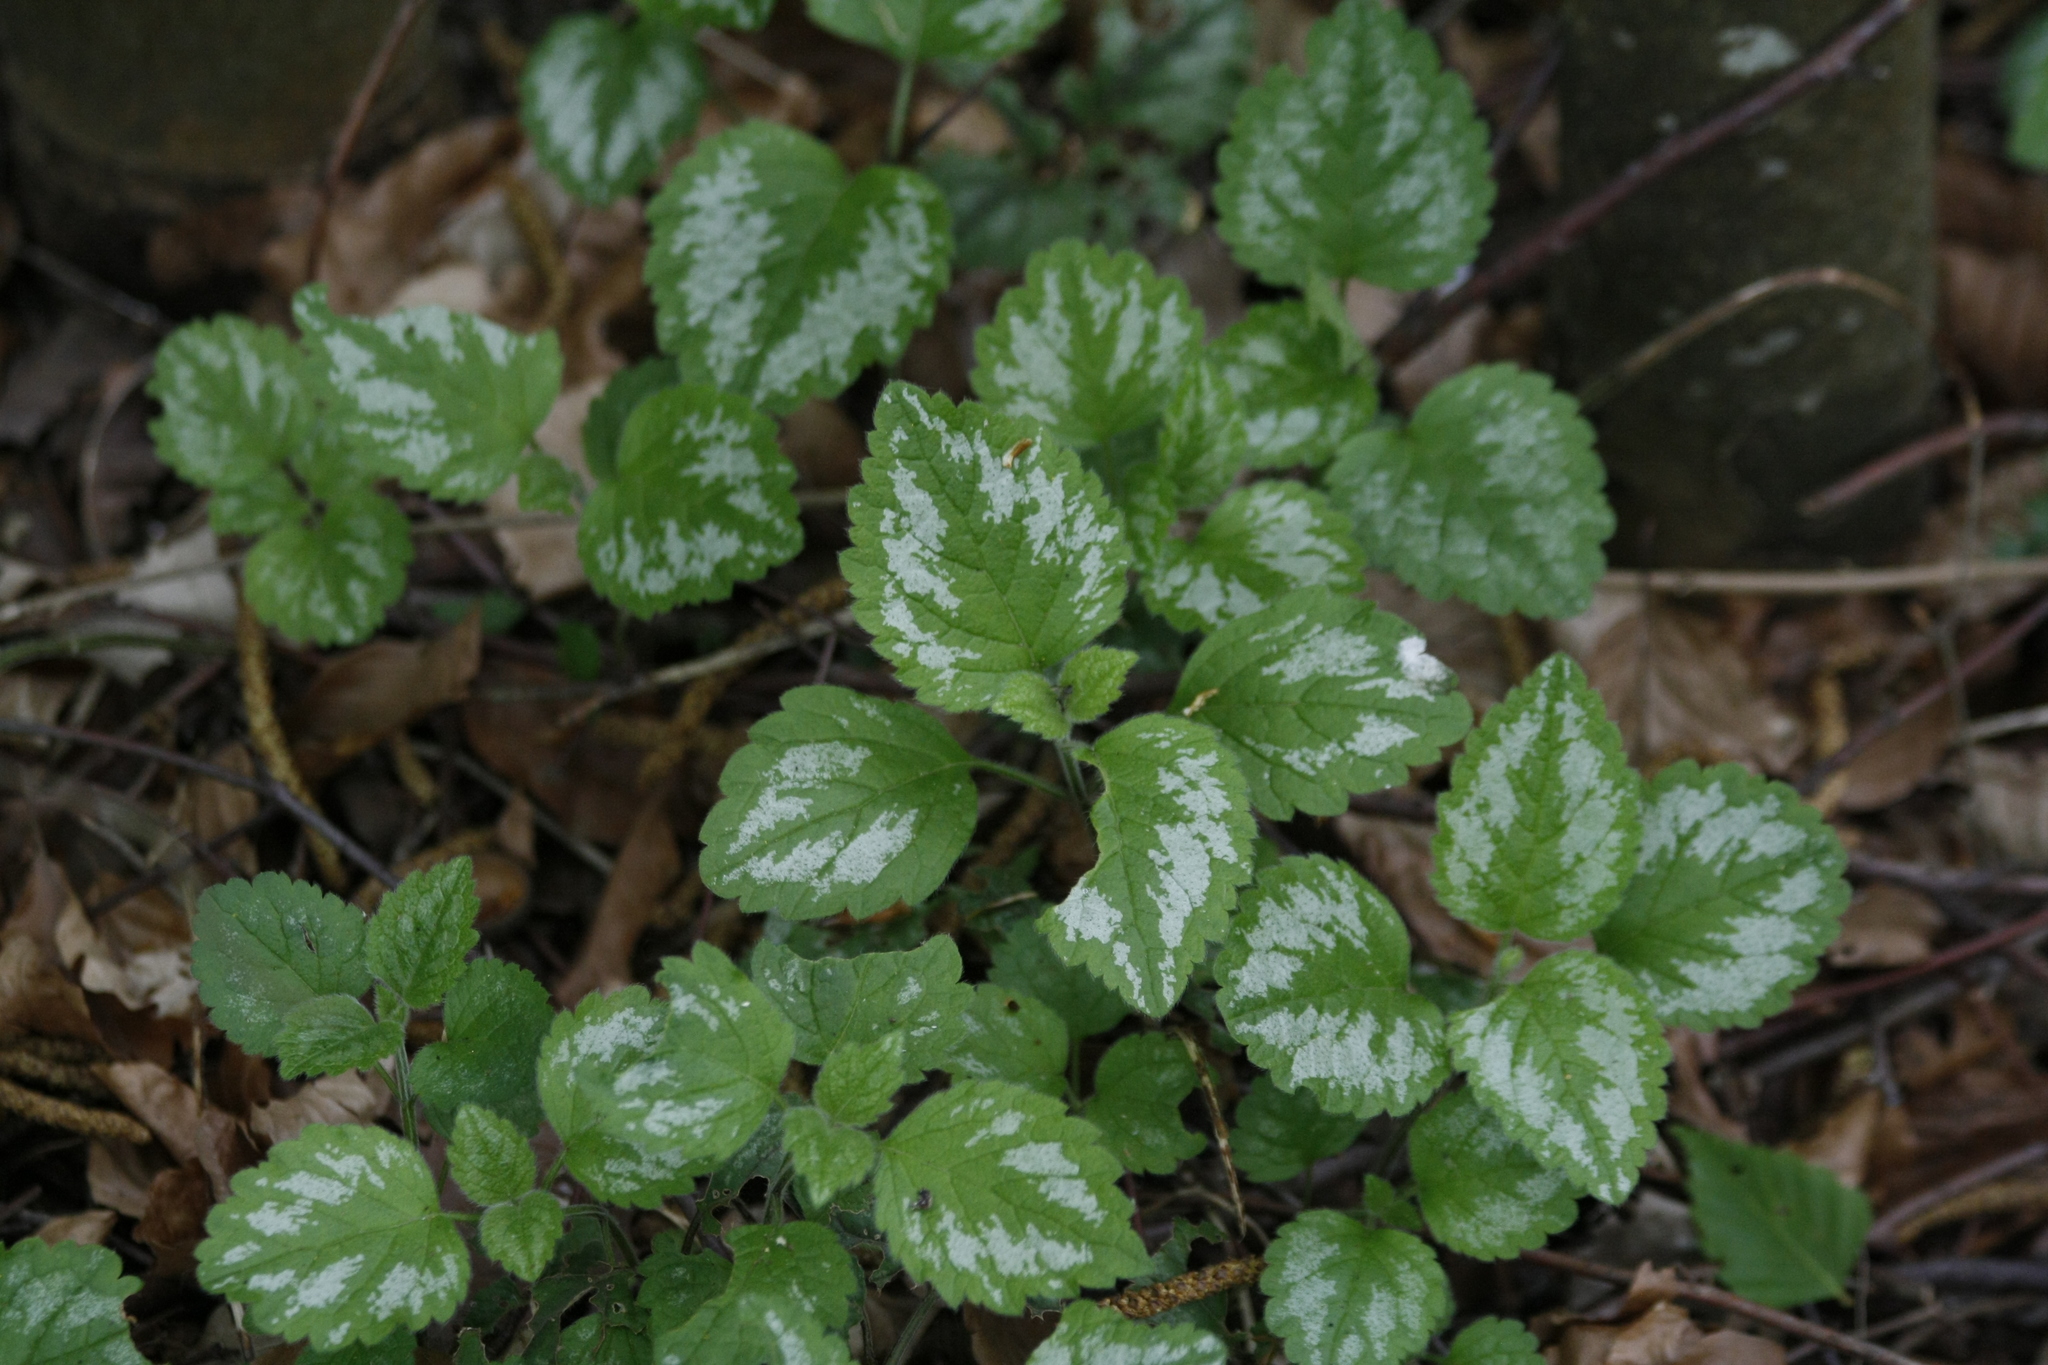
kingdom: Plantae
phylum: Tracheophyta
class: Magnoliopsida
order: Lamiales
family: Lamiaceae
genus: Lamium
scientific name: Lamium galeobdolon
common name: Yellow archangel
